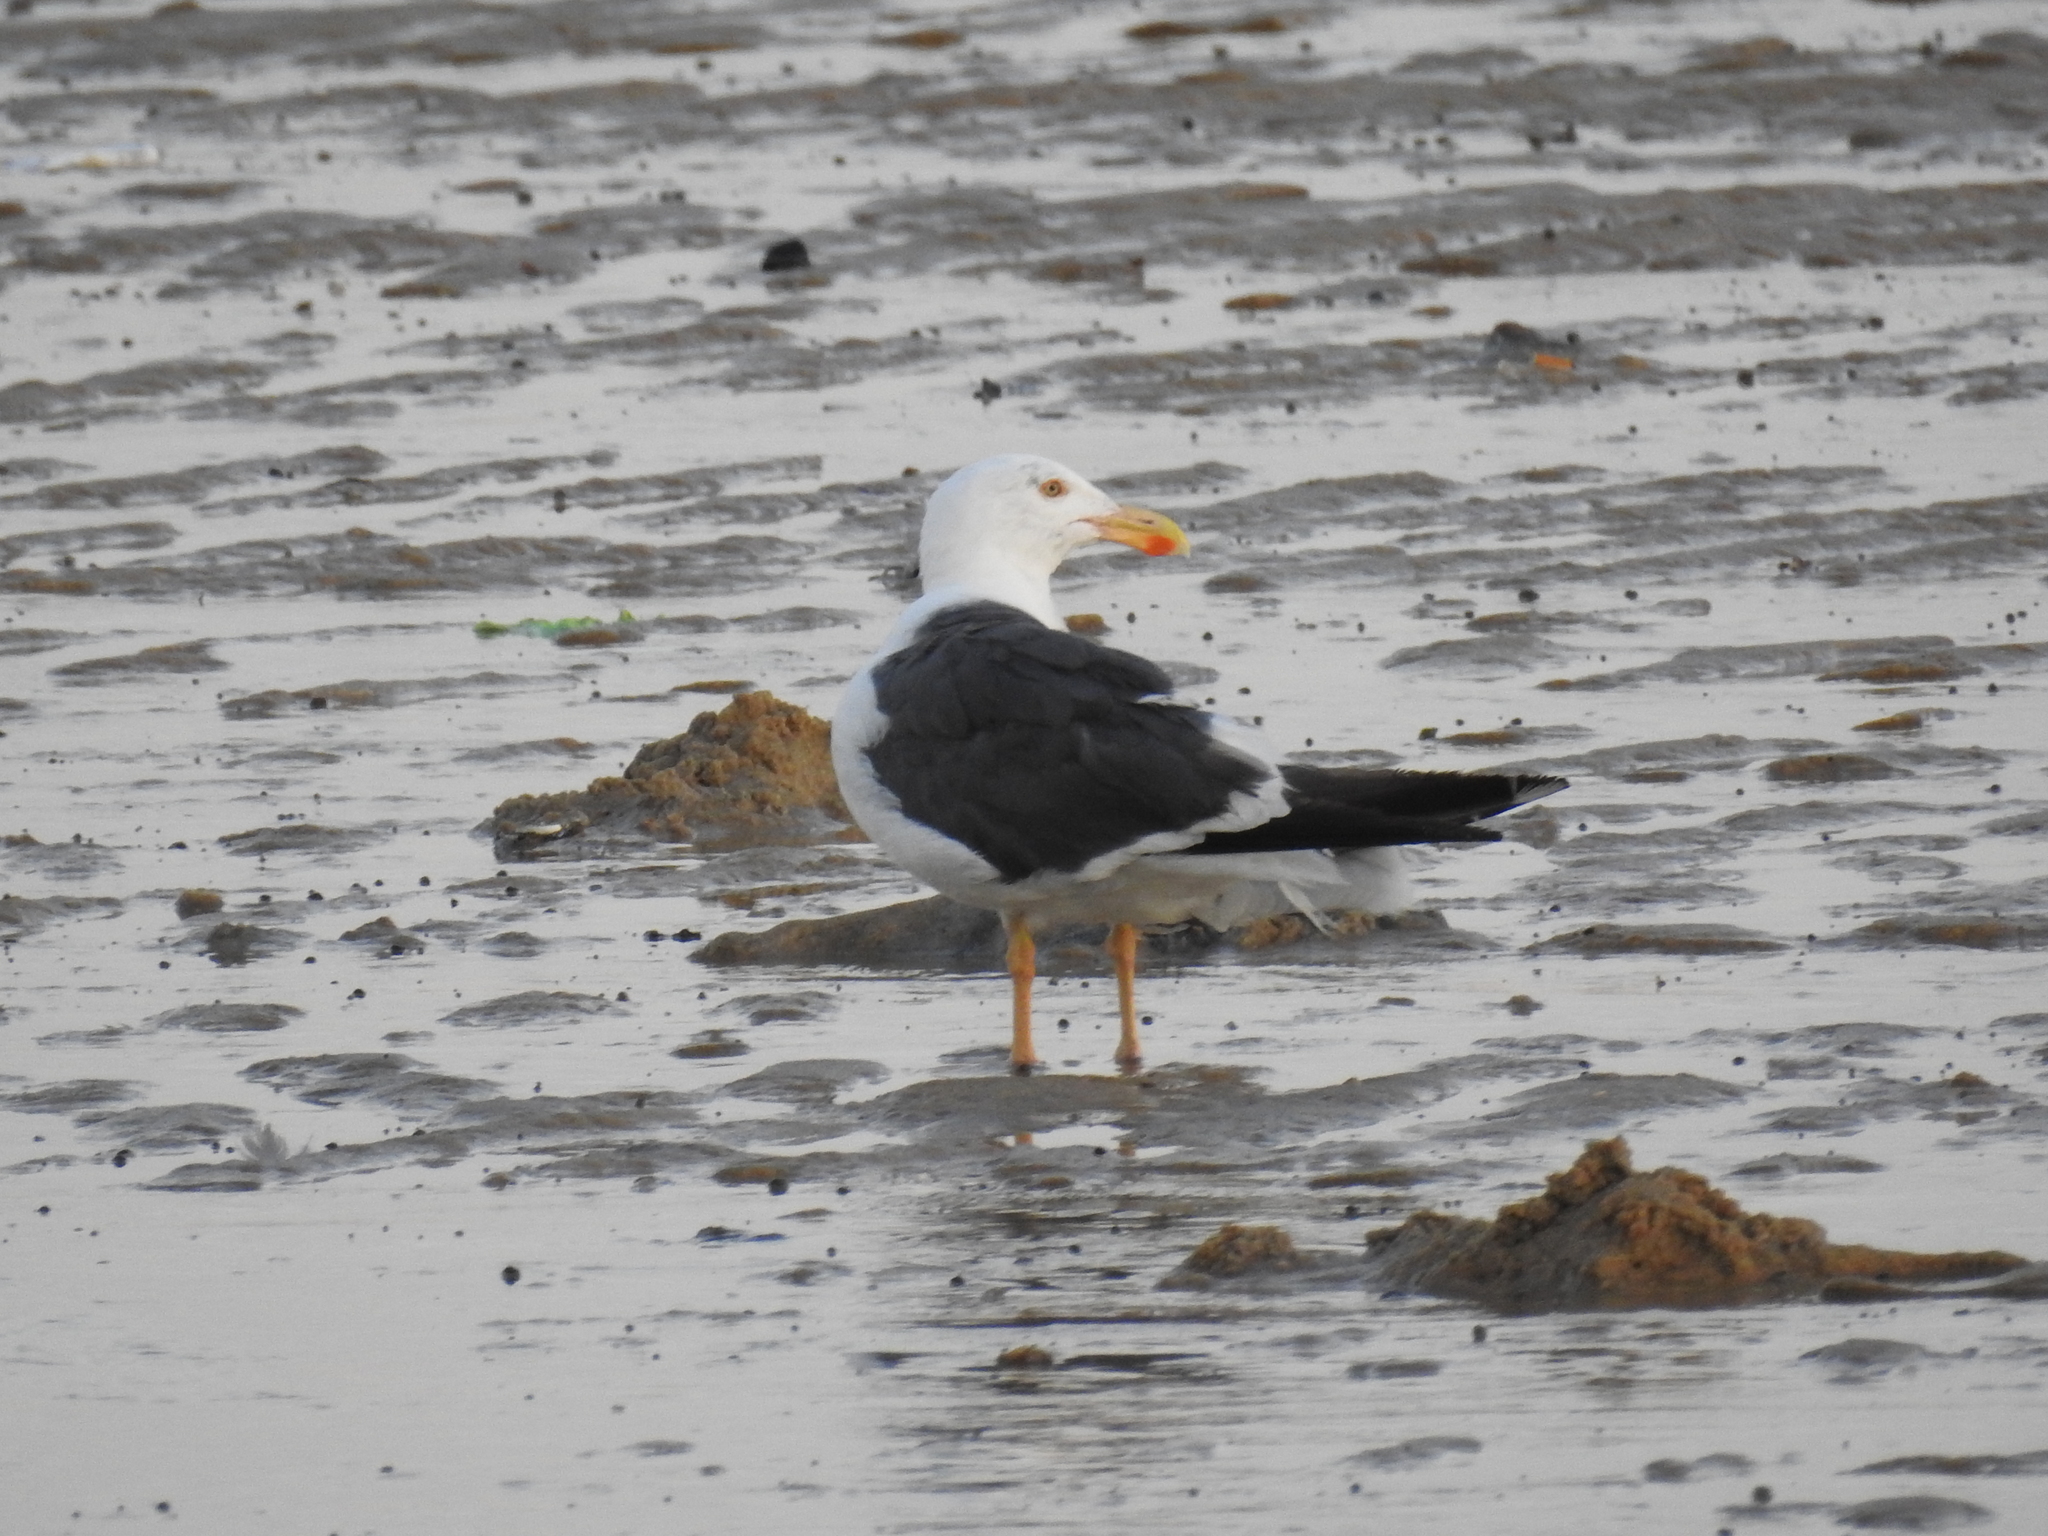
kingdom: Animalia
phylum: Chordata
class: Aves
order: Charadriiformes
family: Laridae
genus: Larus
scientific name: Larus livens
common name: Yellow-footed gull
